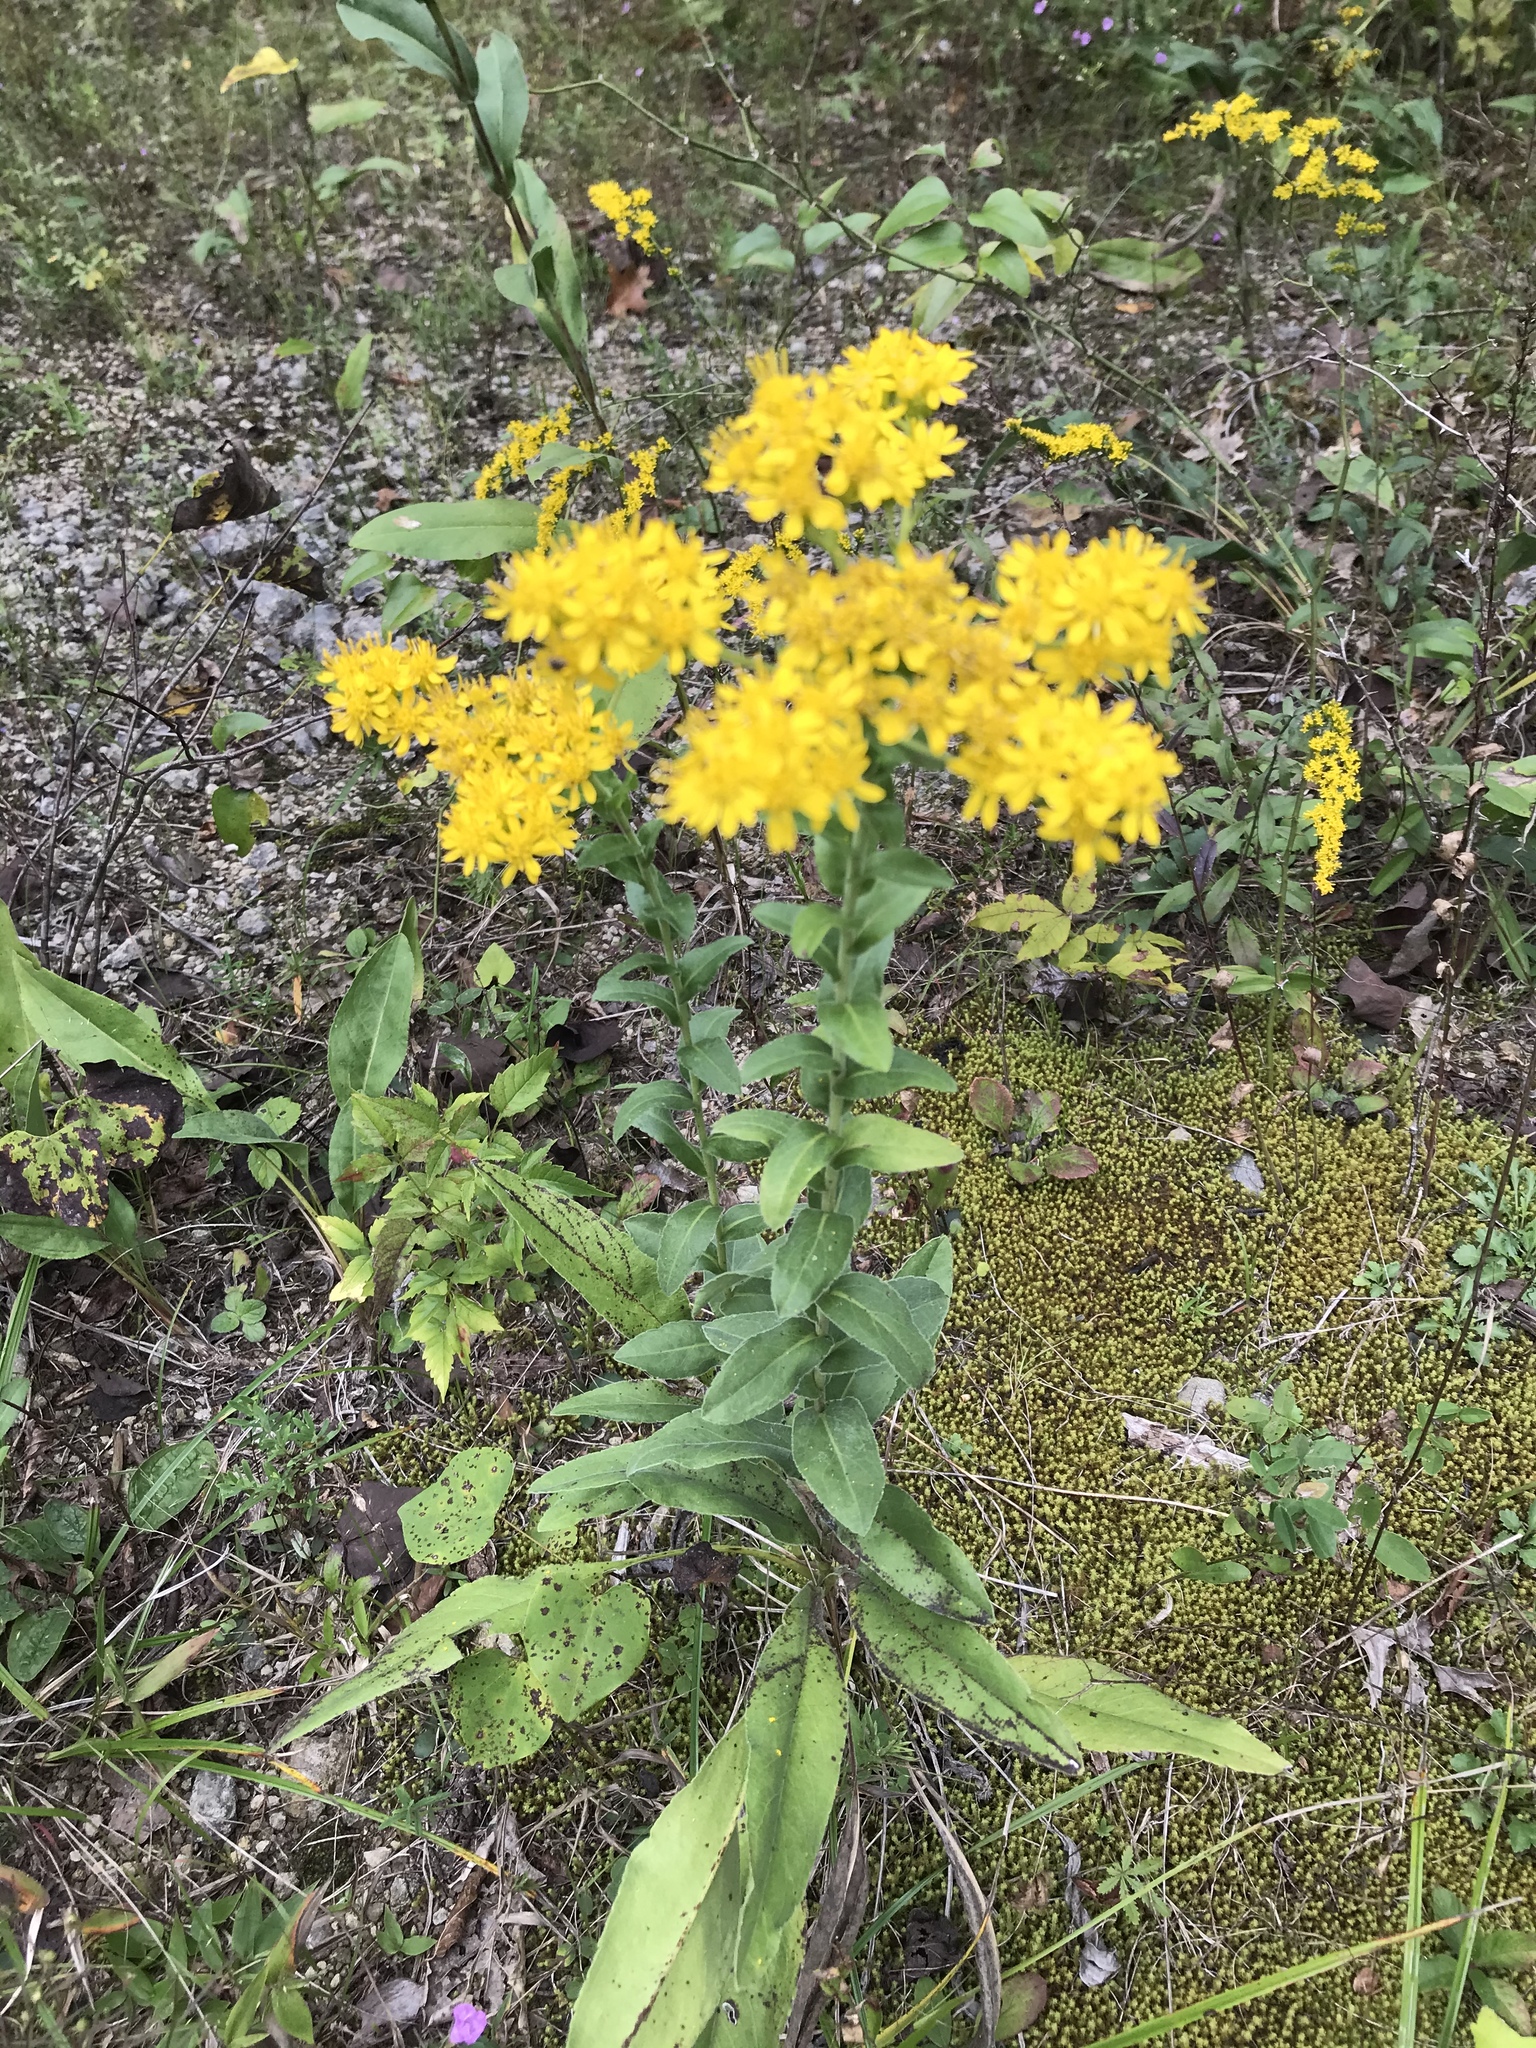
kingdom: Plantae
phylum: Tracheophyta
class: Magnoliopsida
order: Asterales
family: Asteraceae
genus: Solidago
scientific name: Solidago rigida
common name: Rigid goldenrod
